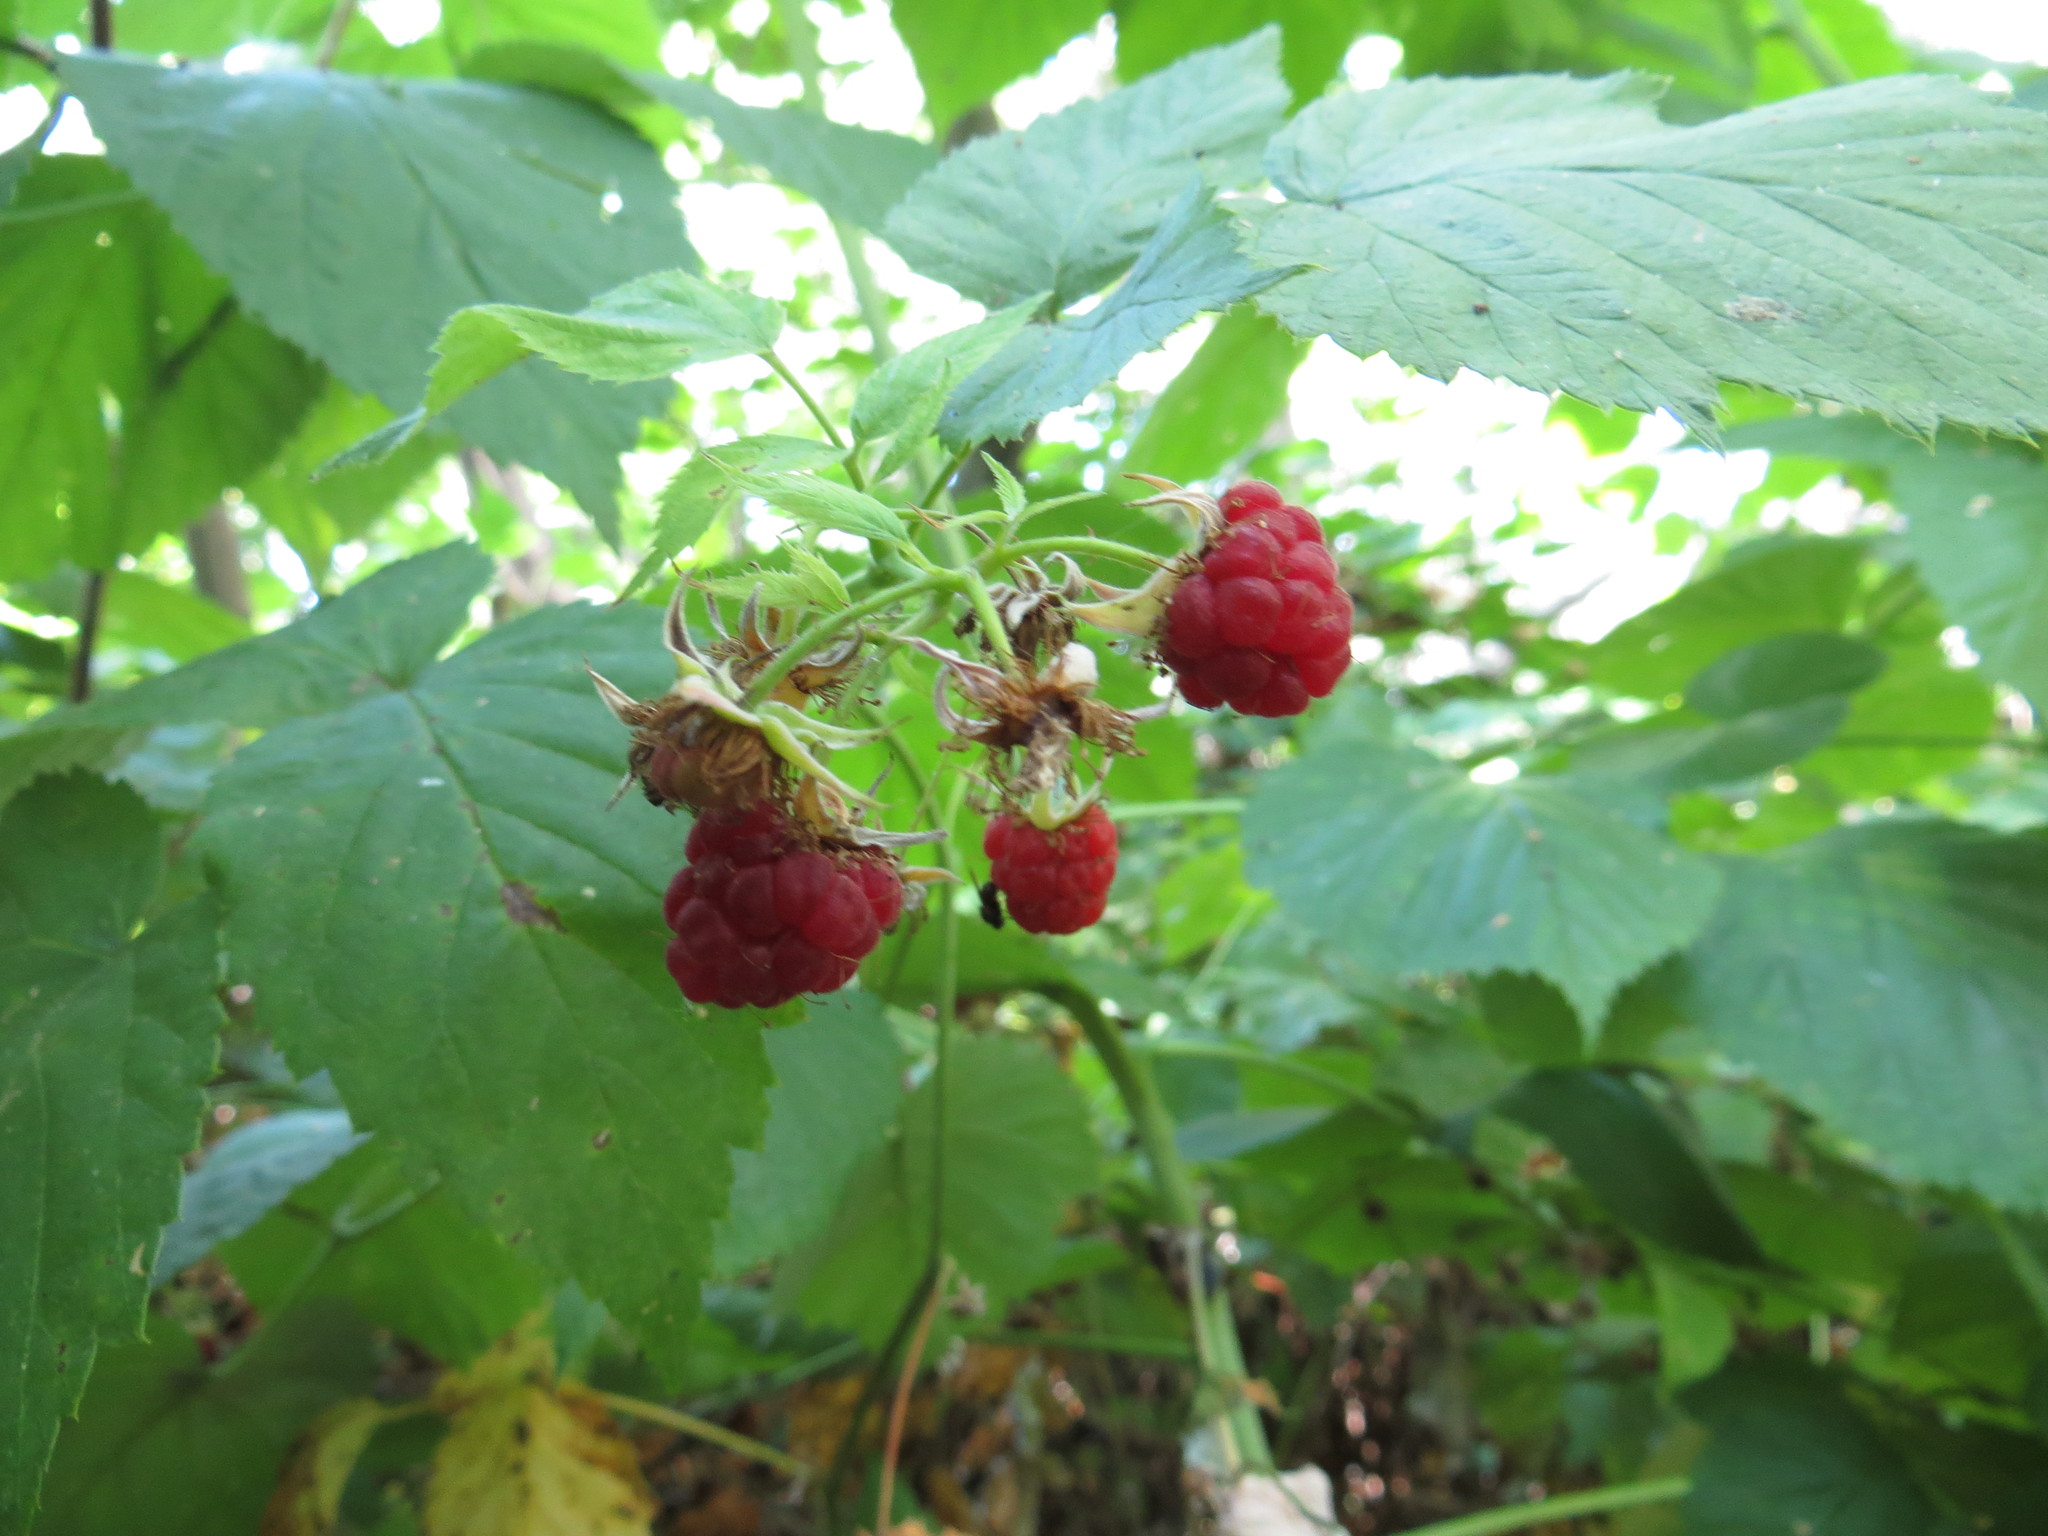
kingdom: Plantae
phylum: Tracheophyta
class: Magnoliopsida
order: Rosales
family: Rosaceae
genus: Rubus
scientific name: Rubus idaeus
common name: Raspberry
